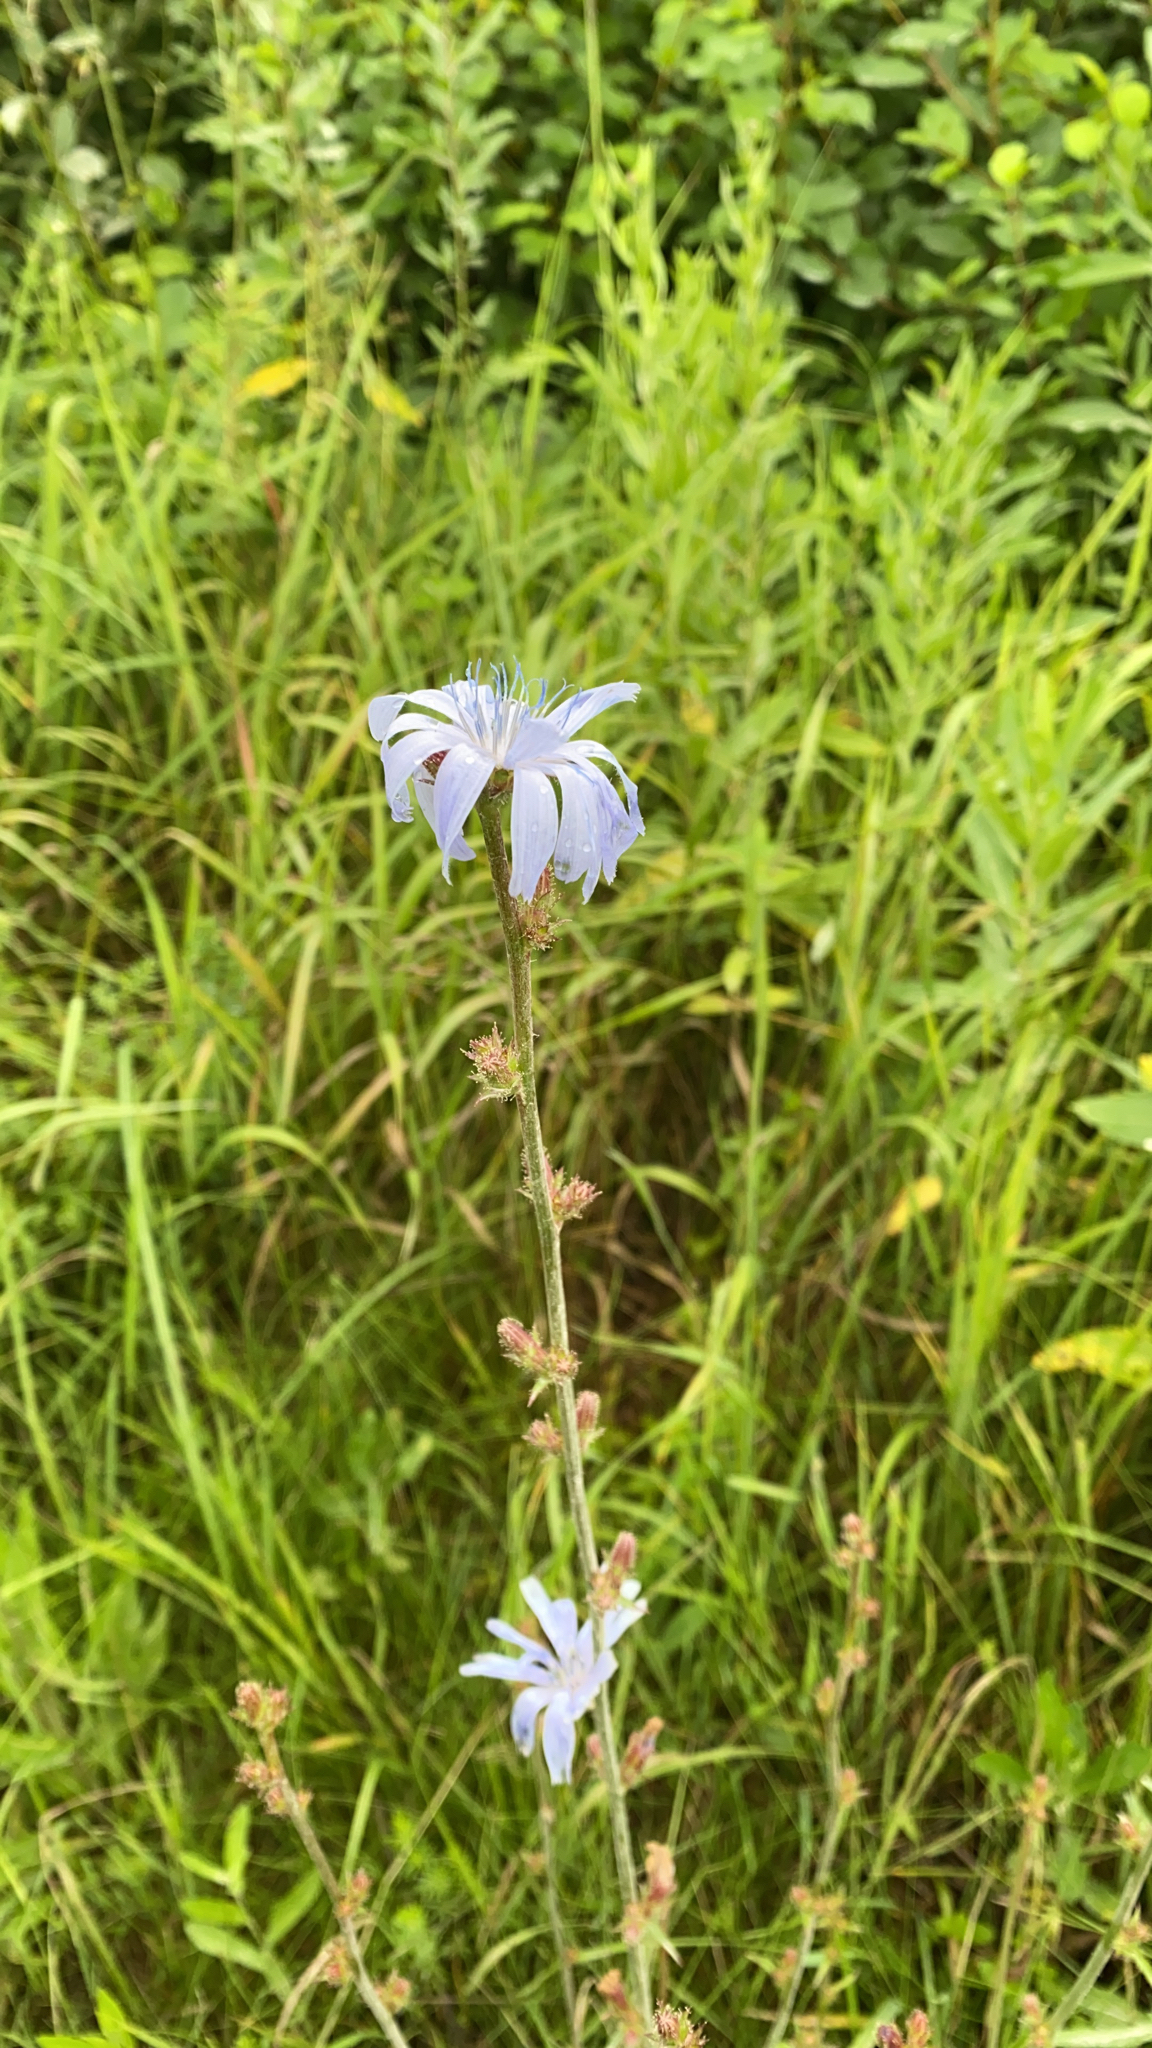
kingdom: Plantae
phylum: Tracheophyta
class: Magnoliopsida
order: Asterales
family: Asteraceae
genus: Cichorium
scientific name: Cichorium intybus
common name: Chicory
